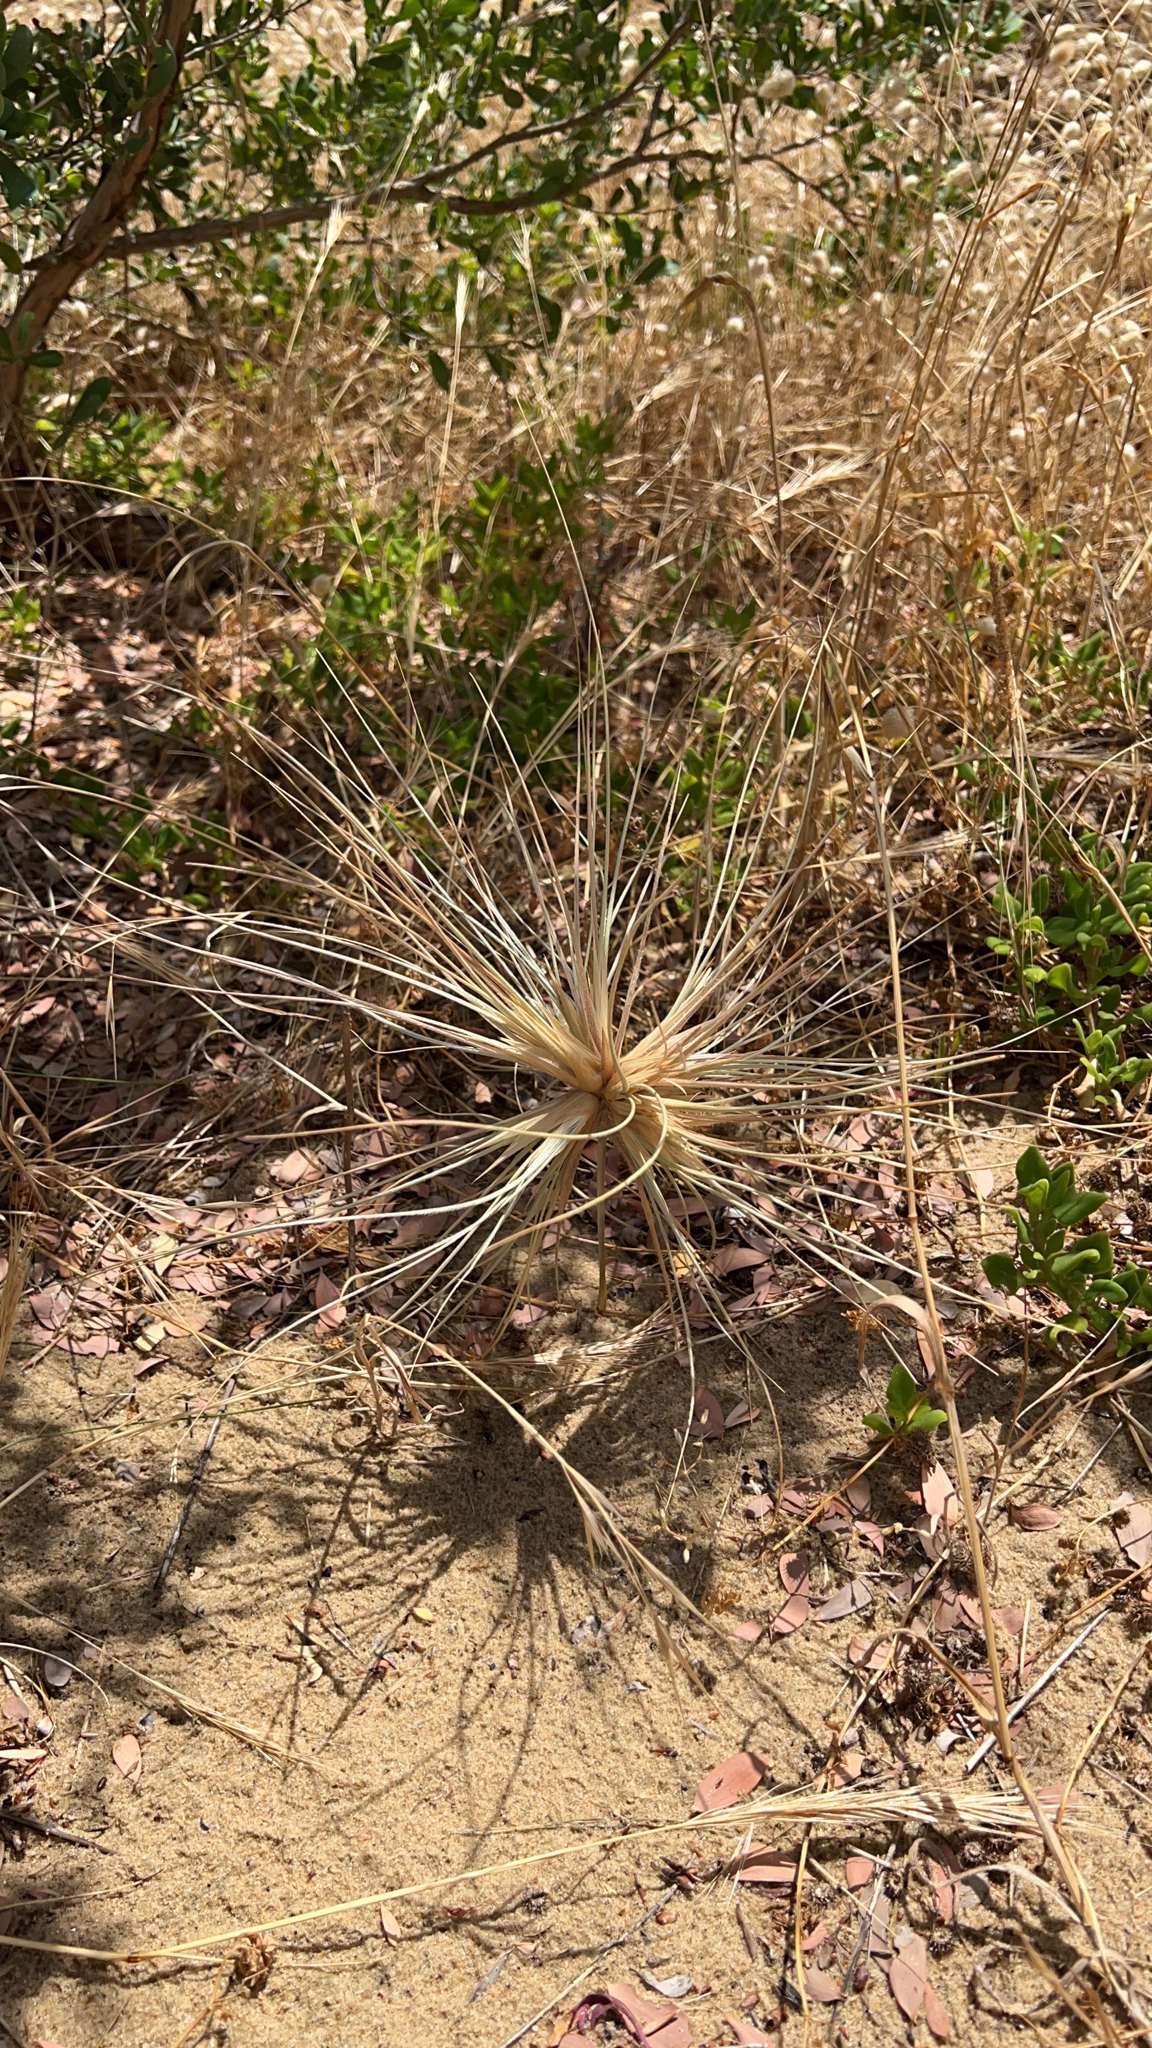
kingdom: Plantae
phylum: Tracheophyta
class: Liliopsida
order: Poales
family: Poaceae
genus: Spinifex
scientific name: Spinifex sericeus
